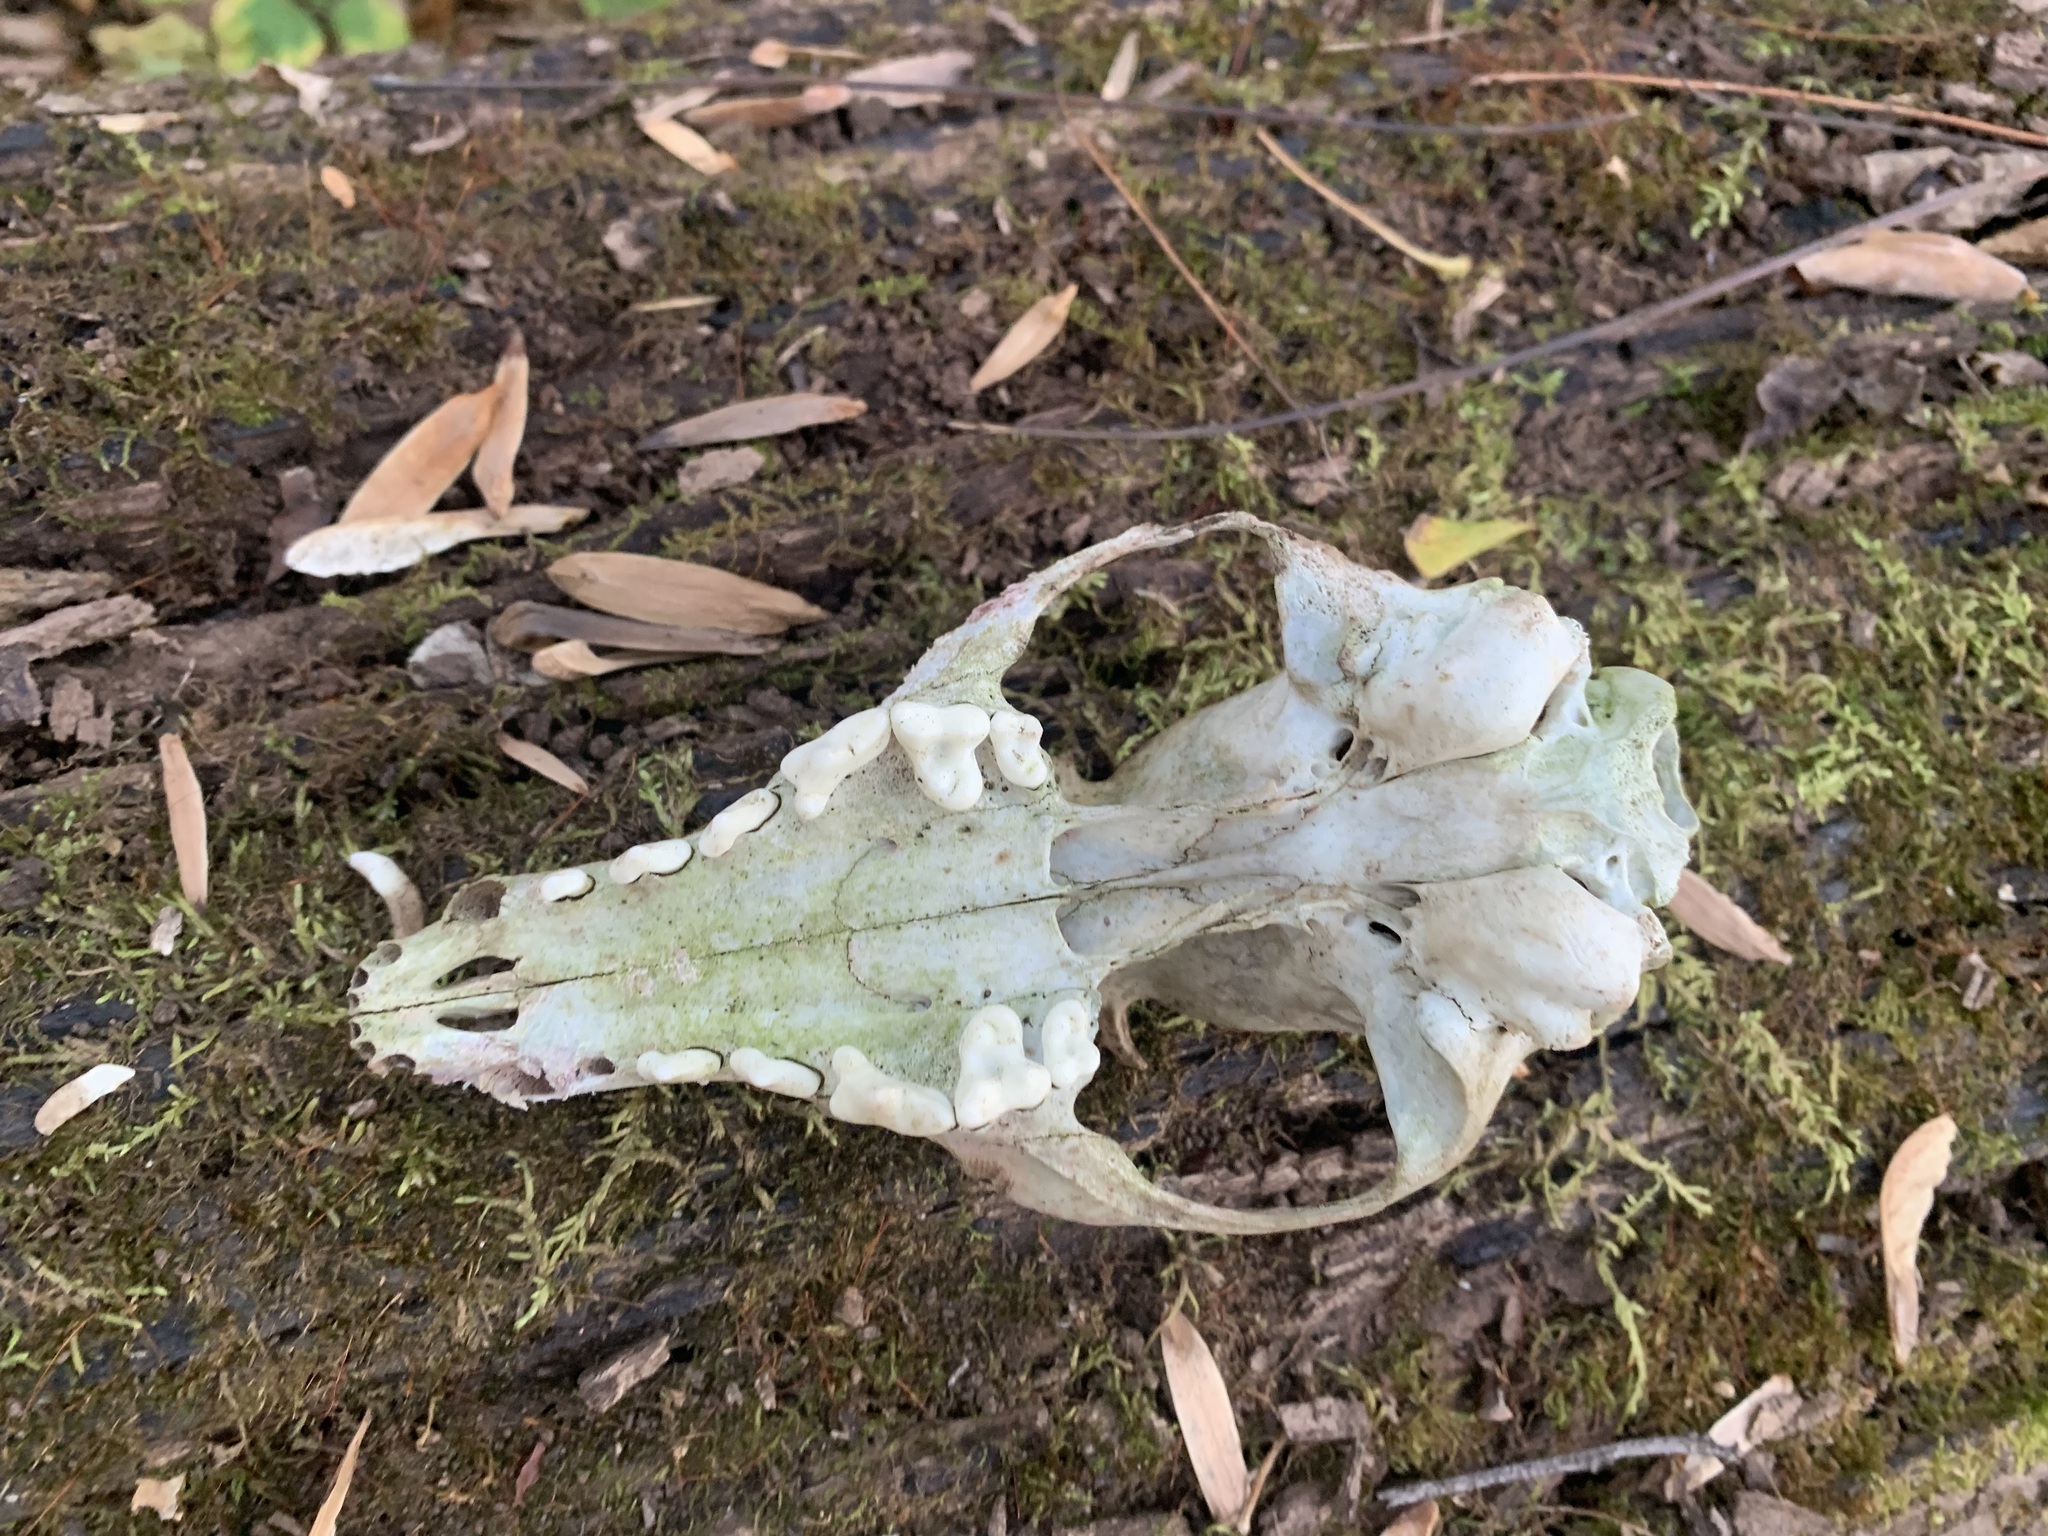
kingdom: Animalia
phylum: Chordata
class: Mammalia
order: Carnivora
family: Canidae
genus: Vulpes
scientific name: Vulpes vulpes
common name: Red fox
